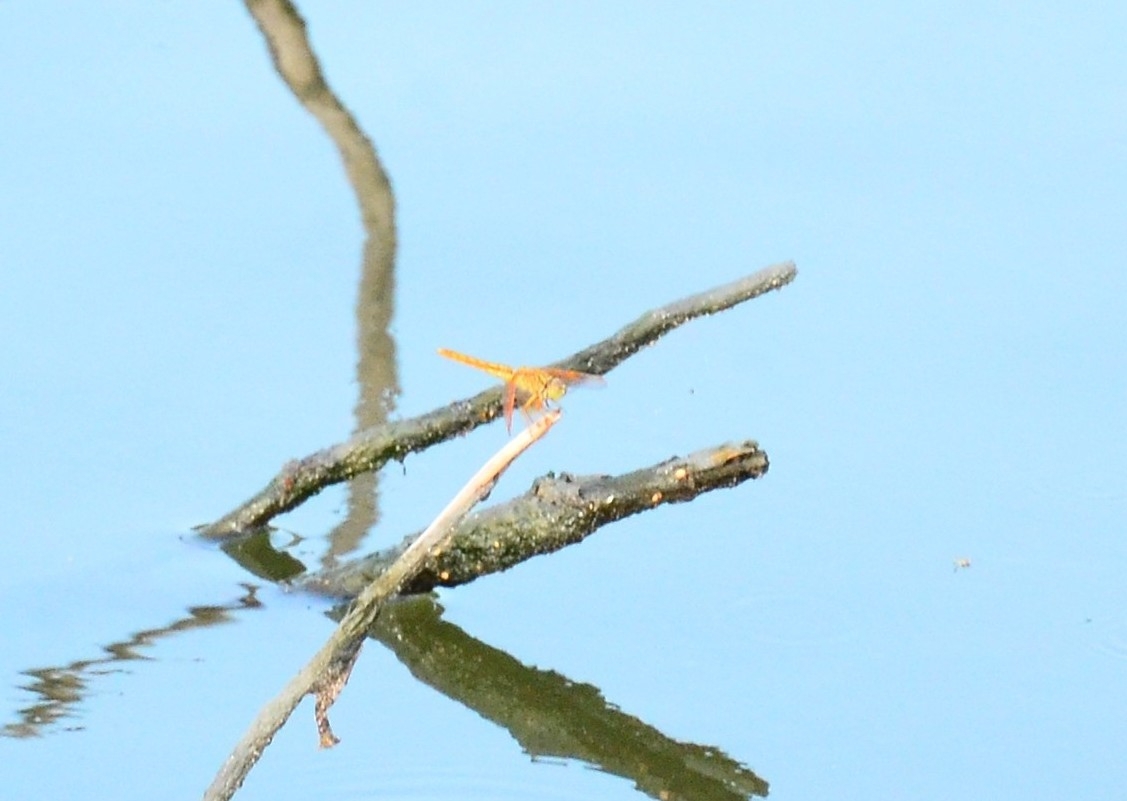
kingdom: Animalia
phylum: Arthropoda
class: Insecta
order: Odonata
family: Libellulidae
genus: Brachythemis
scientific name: Brachythemis contaminata
